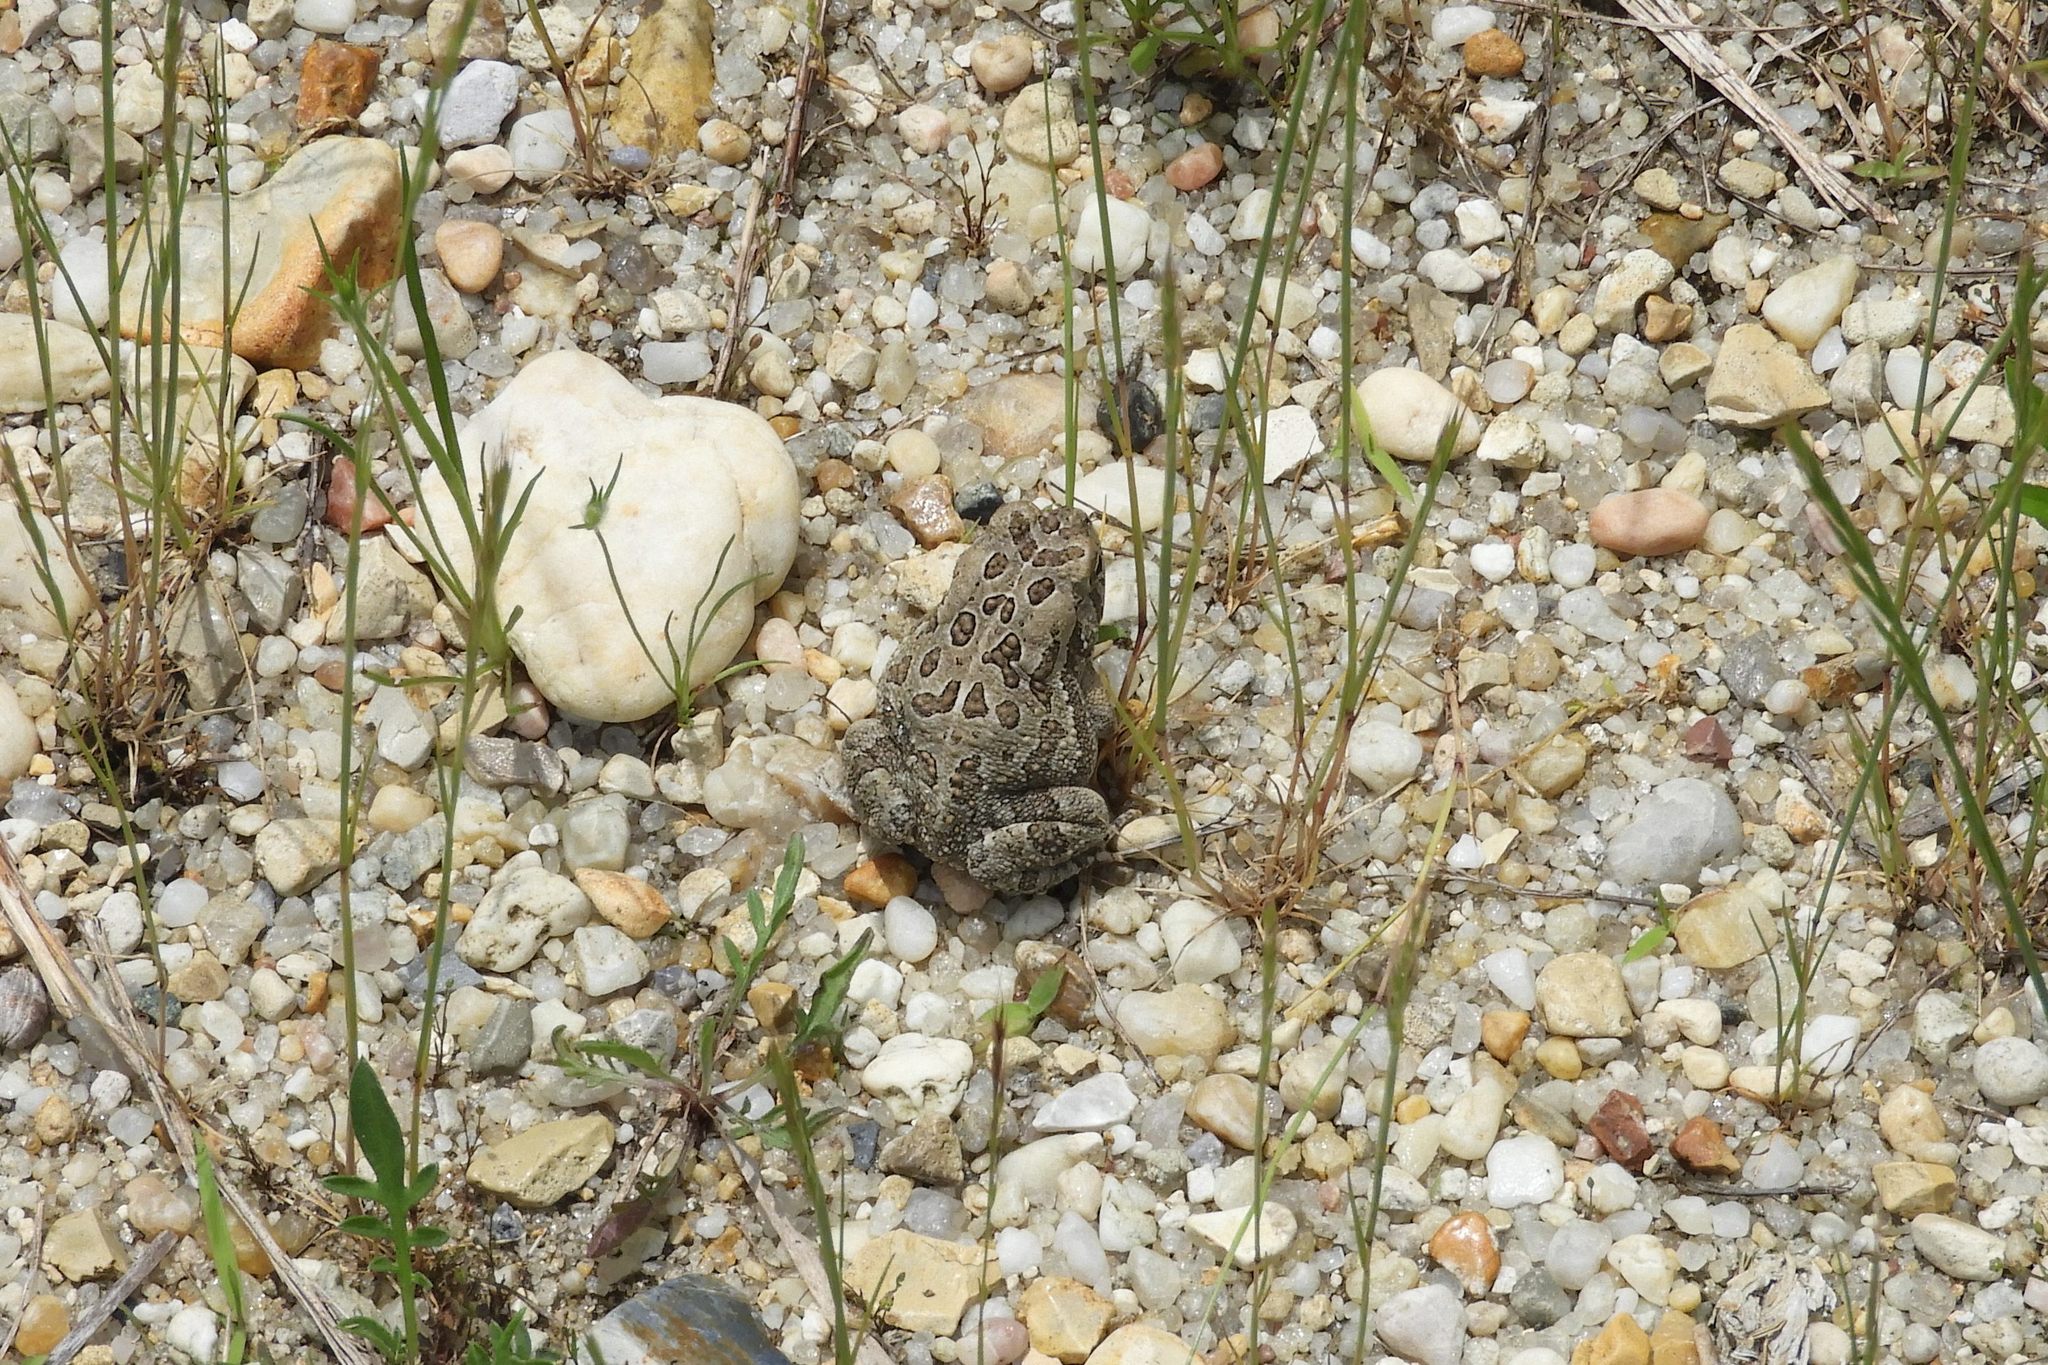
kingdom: Animalia
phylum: Chordata
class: Amphibia
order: Anura
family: Bufonidae
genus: Anaxyrus
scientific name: Anaxyrus fowleri
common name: Fowler's toad
